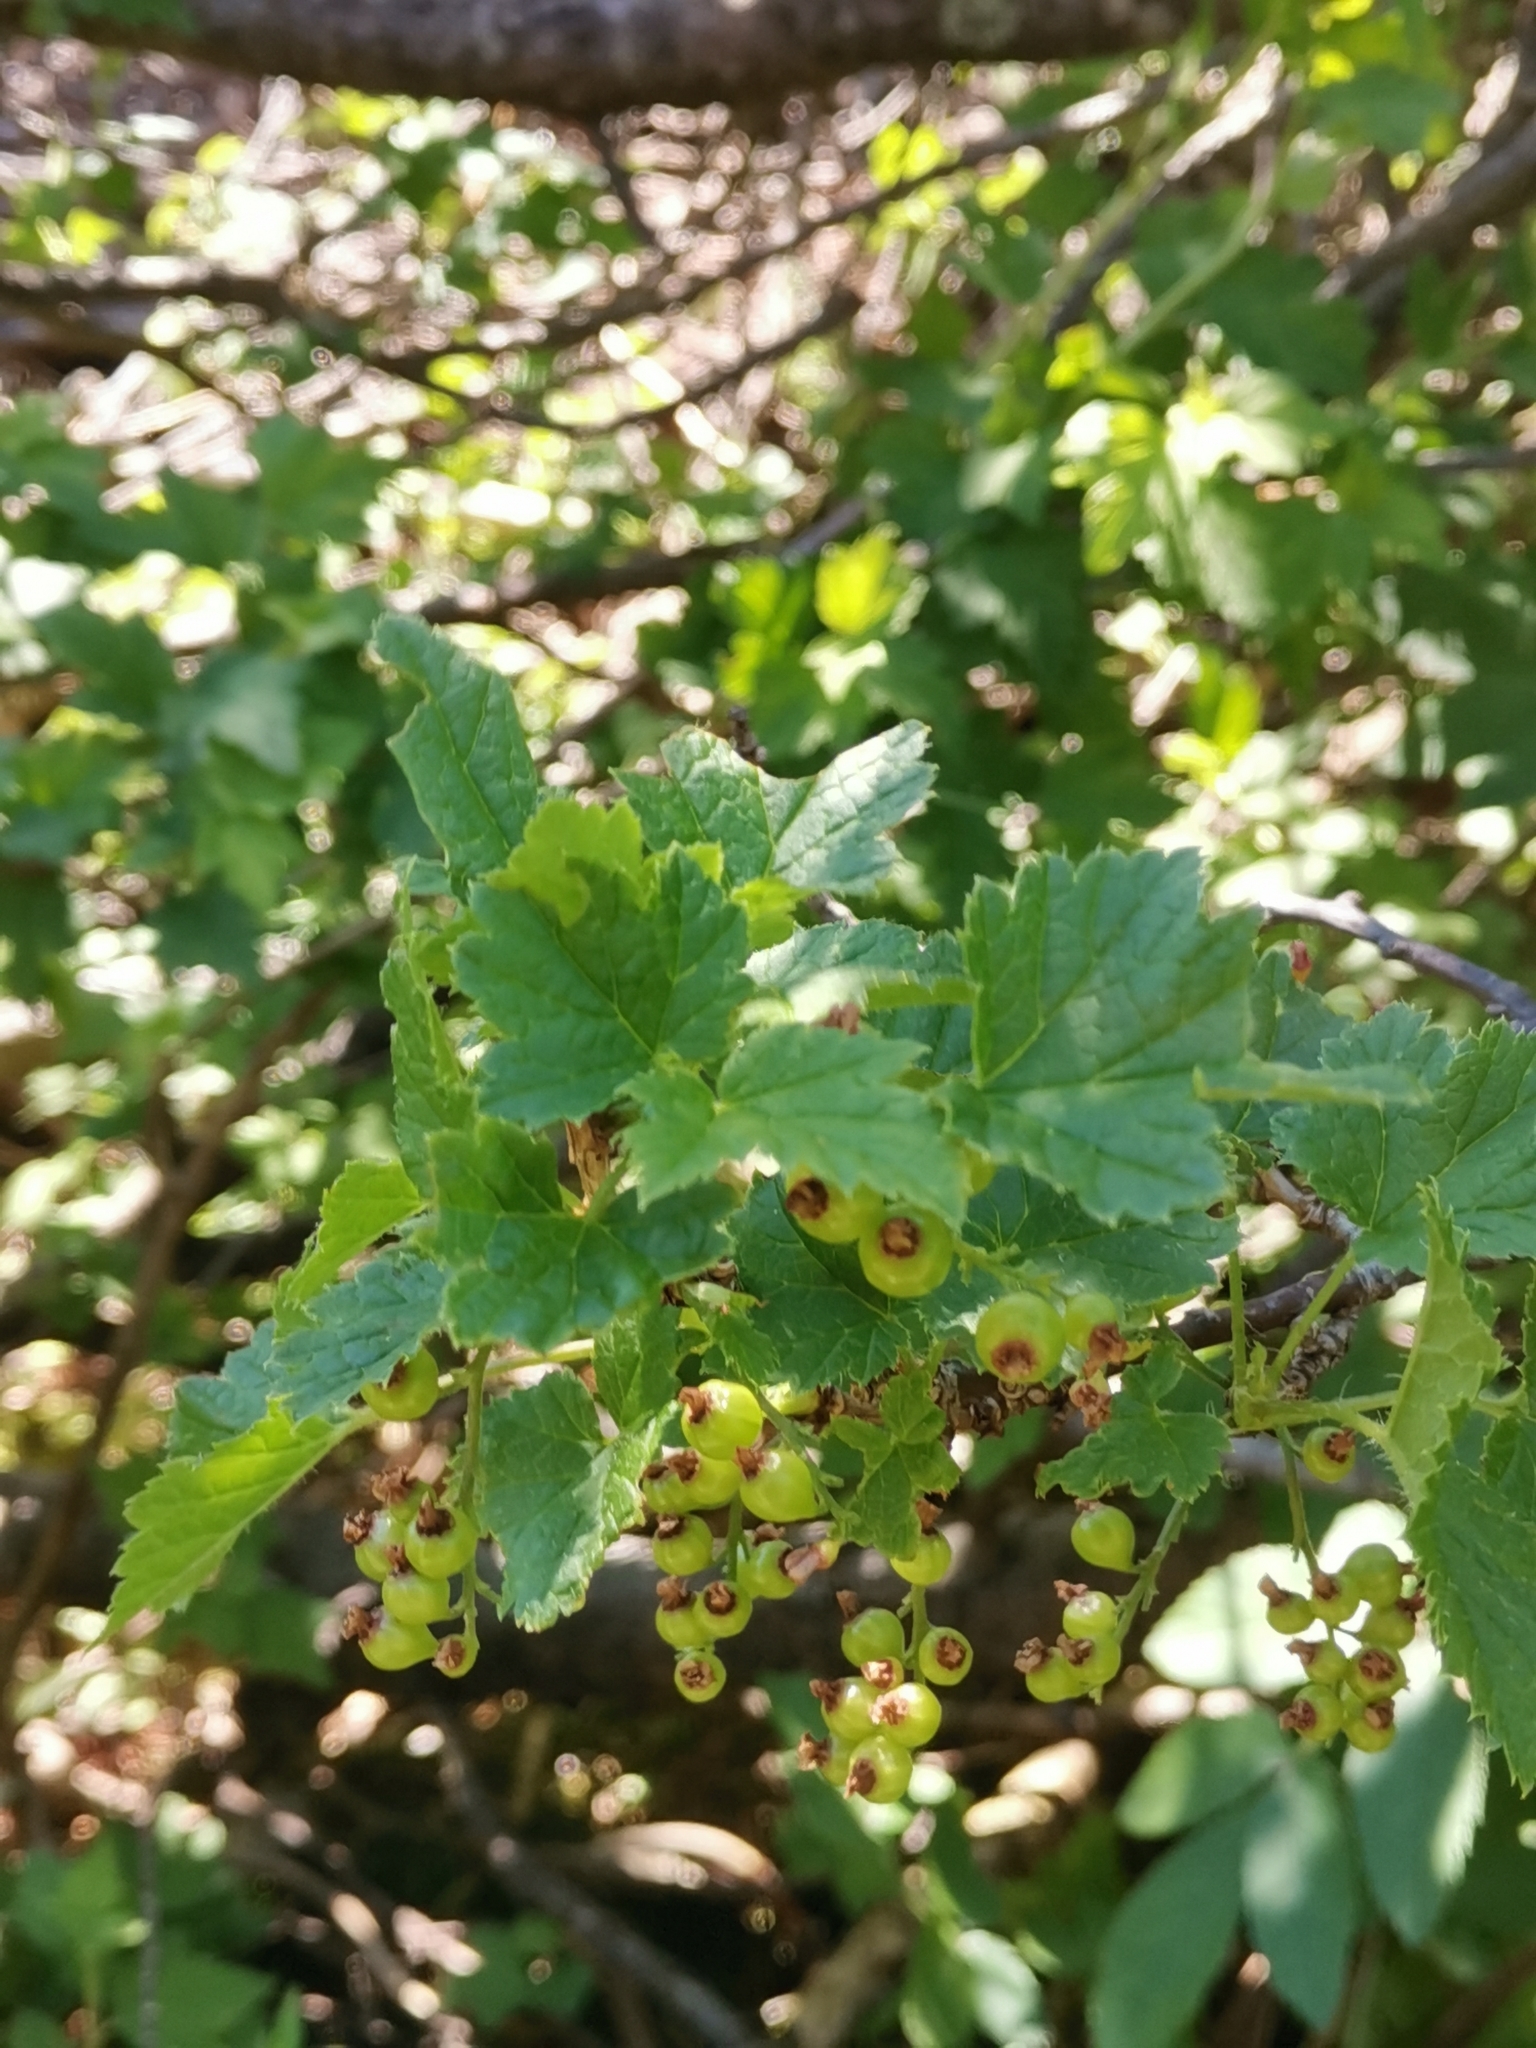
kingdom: Plantae
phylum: Tracheophyta
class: Magnoliopsida
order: Saxifragales
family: Grossulariaceae
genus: Ribes
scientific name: Ribes petraeum
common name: Rock currant
